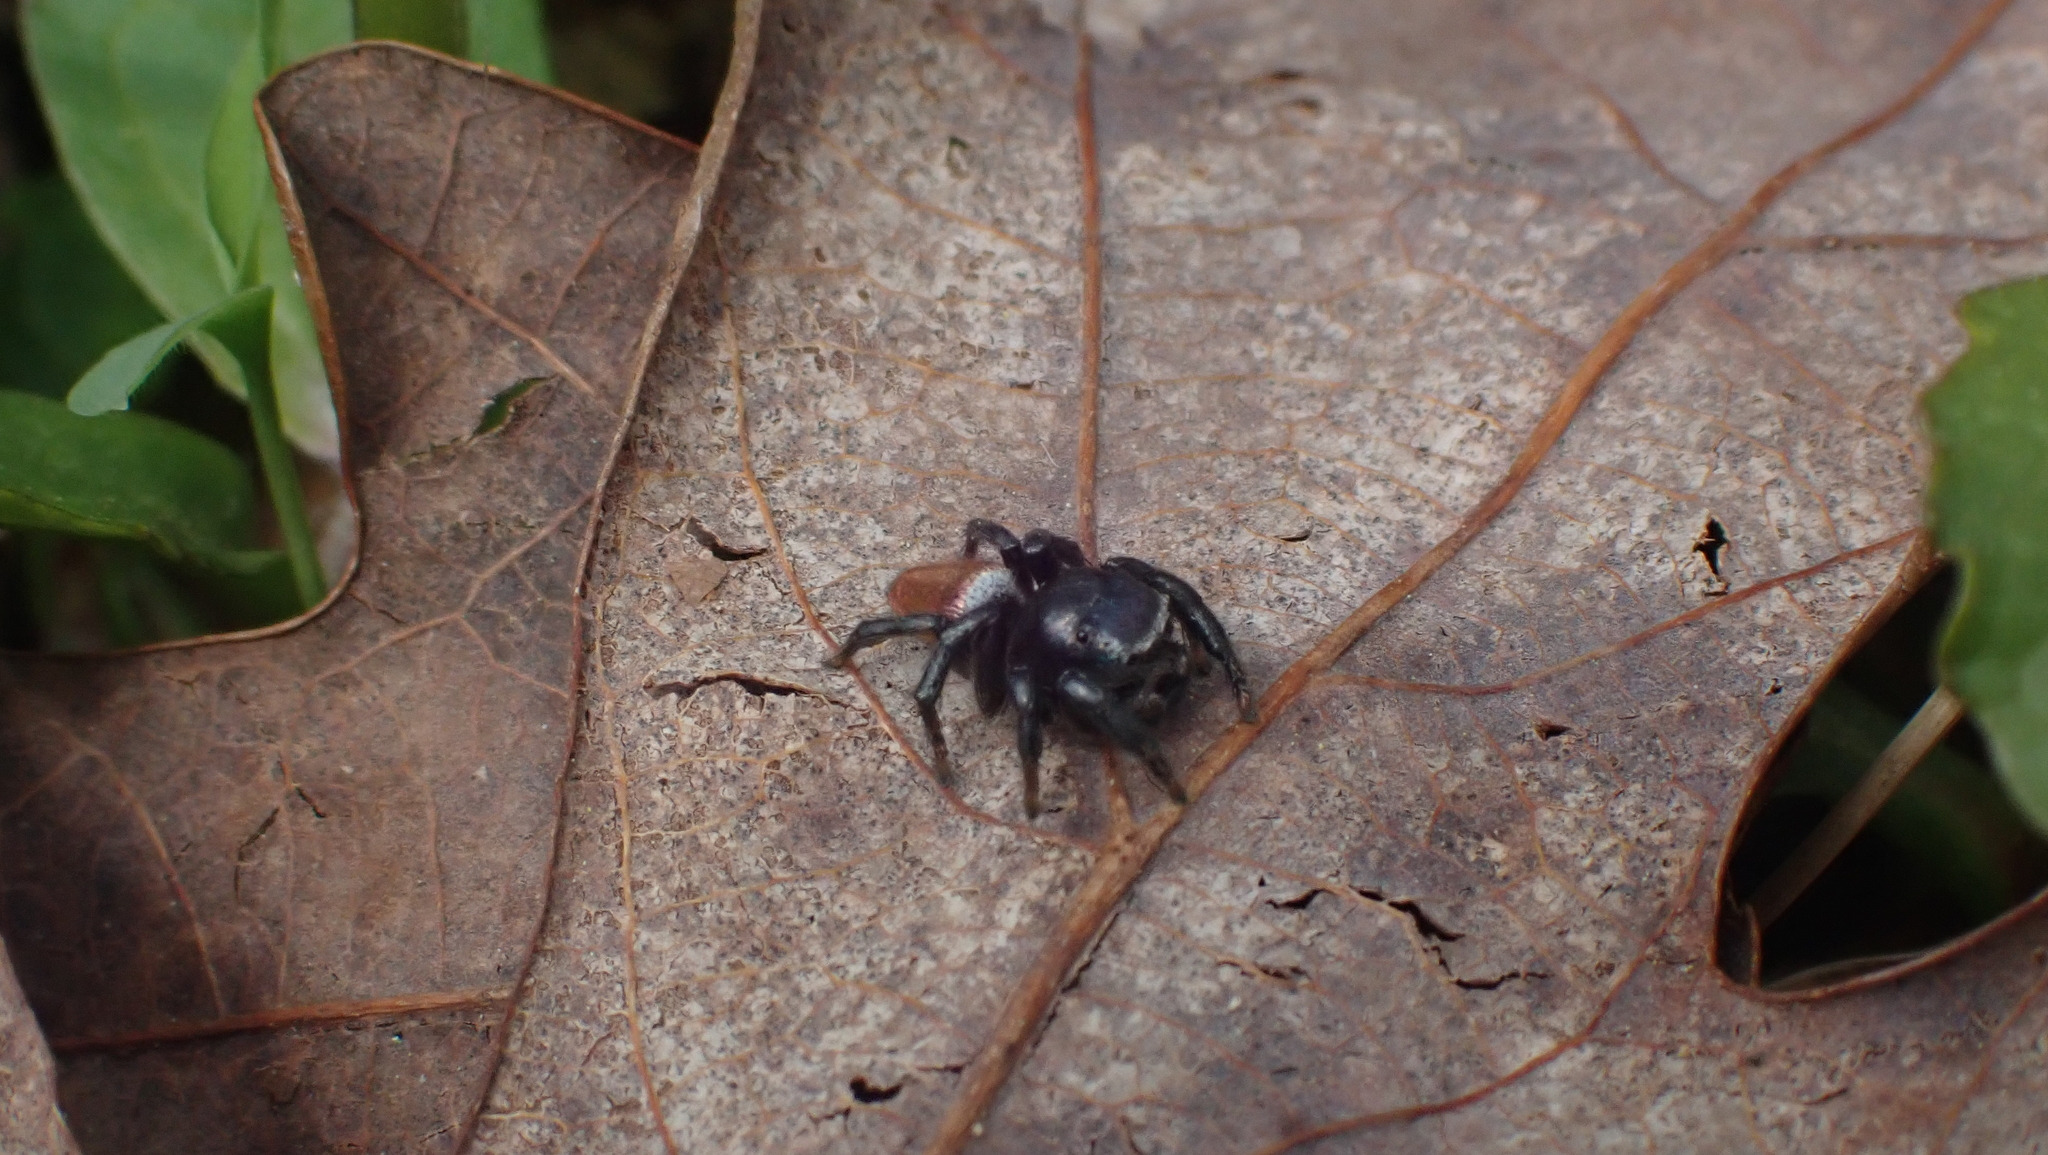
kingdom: Animalia
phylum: Arthropoda
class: Arachnida
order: Araneae
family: Salticidae
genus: Habronattus
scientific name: Habronattus decorus
